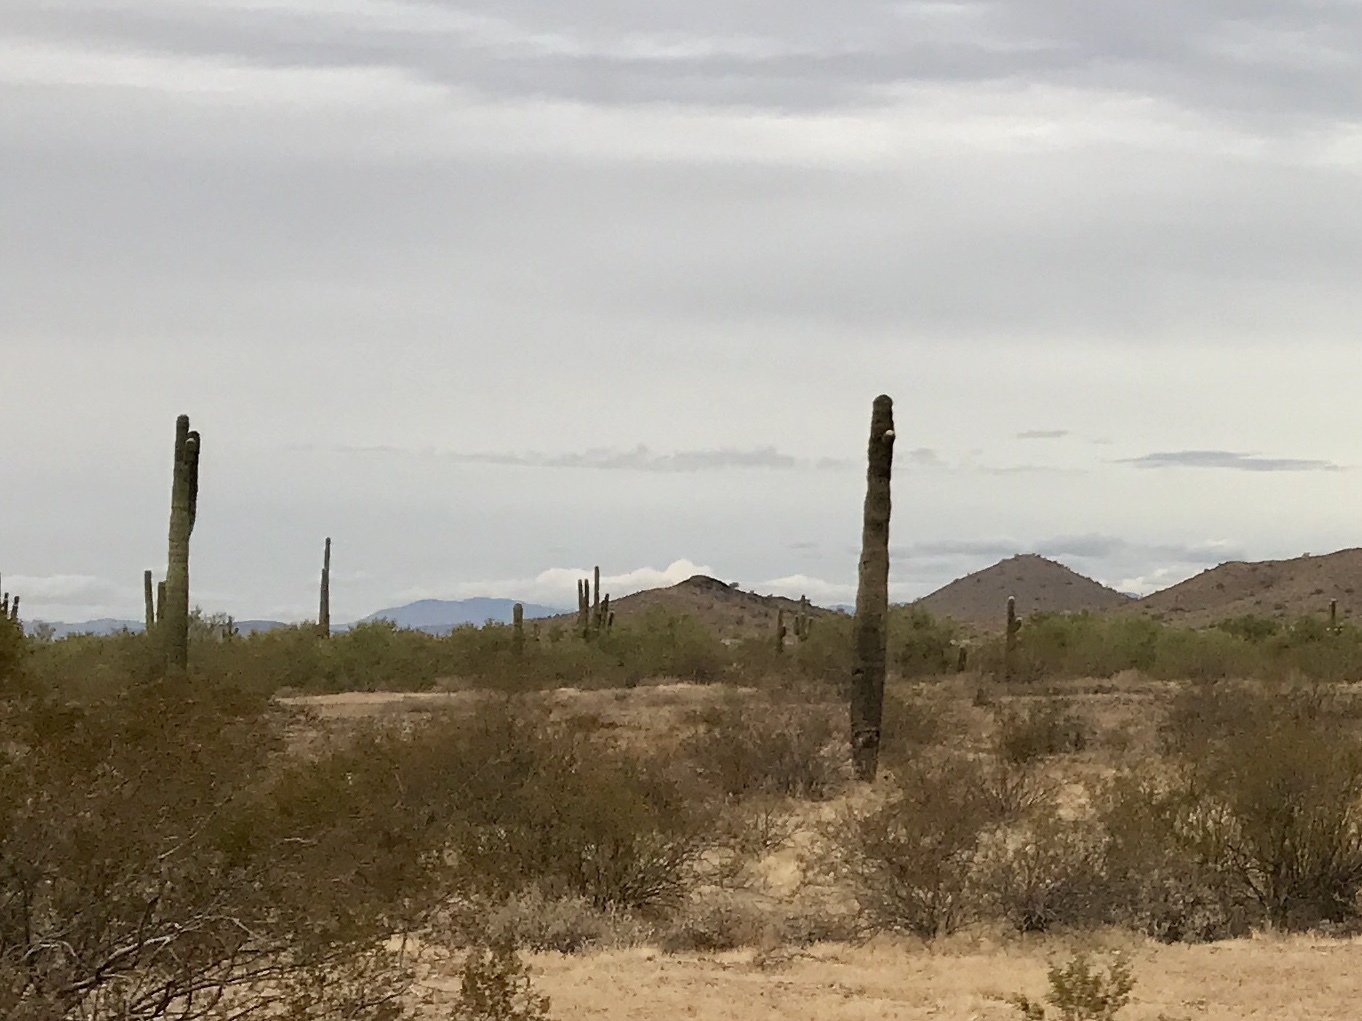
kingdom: Plantae
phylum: Tracheophyta
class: Magnoliopsida
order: Caryophyllales
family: Cactaceae
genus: Carnegiea
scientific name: Carnegiea gigantea
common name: Saguaro
